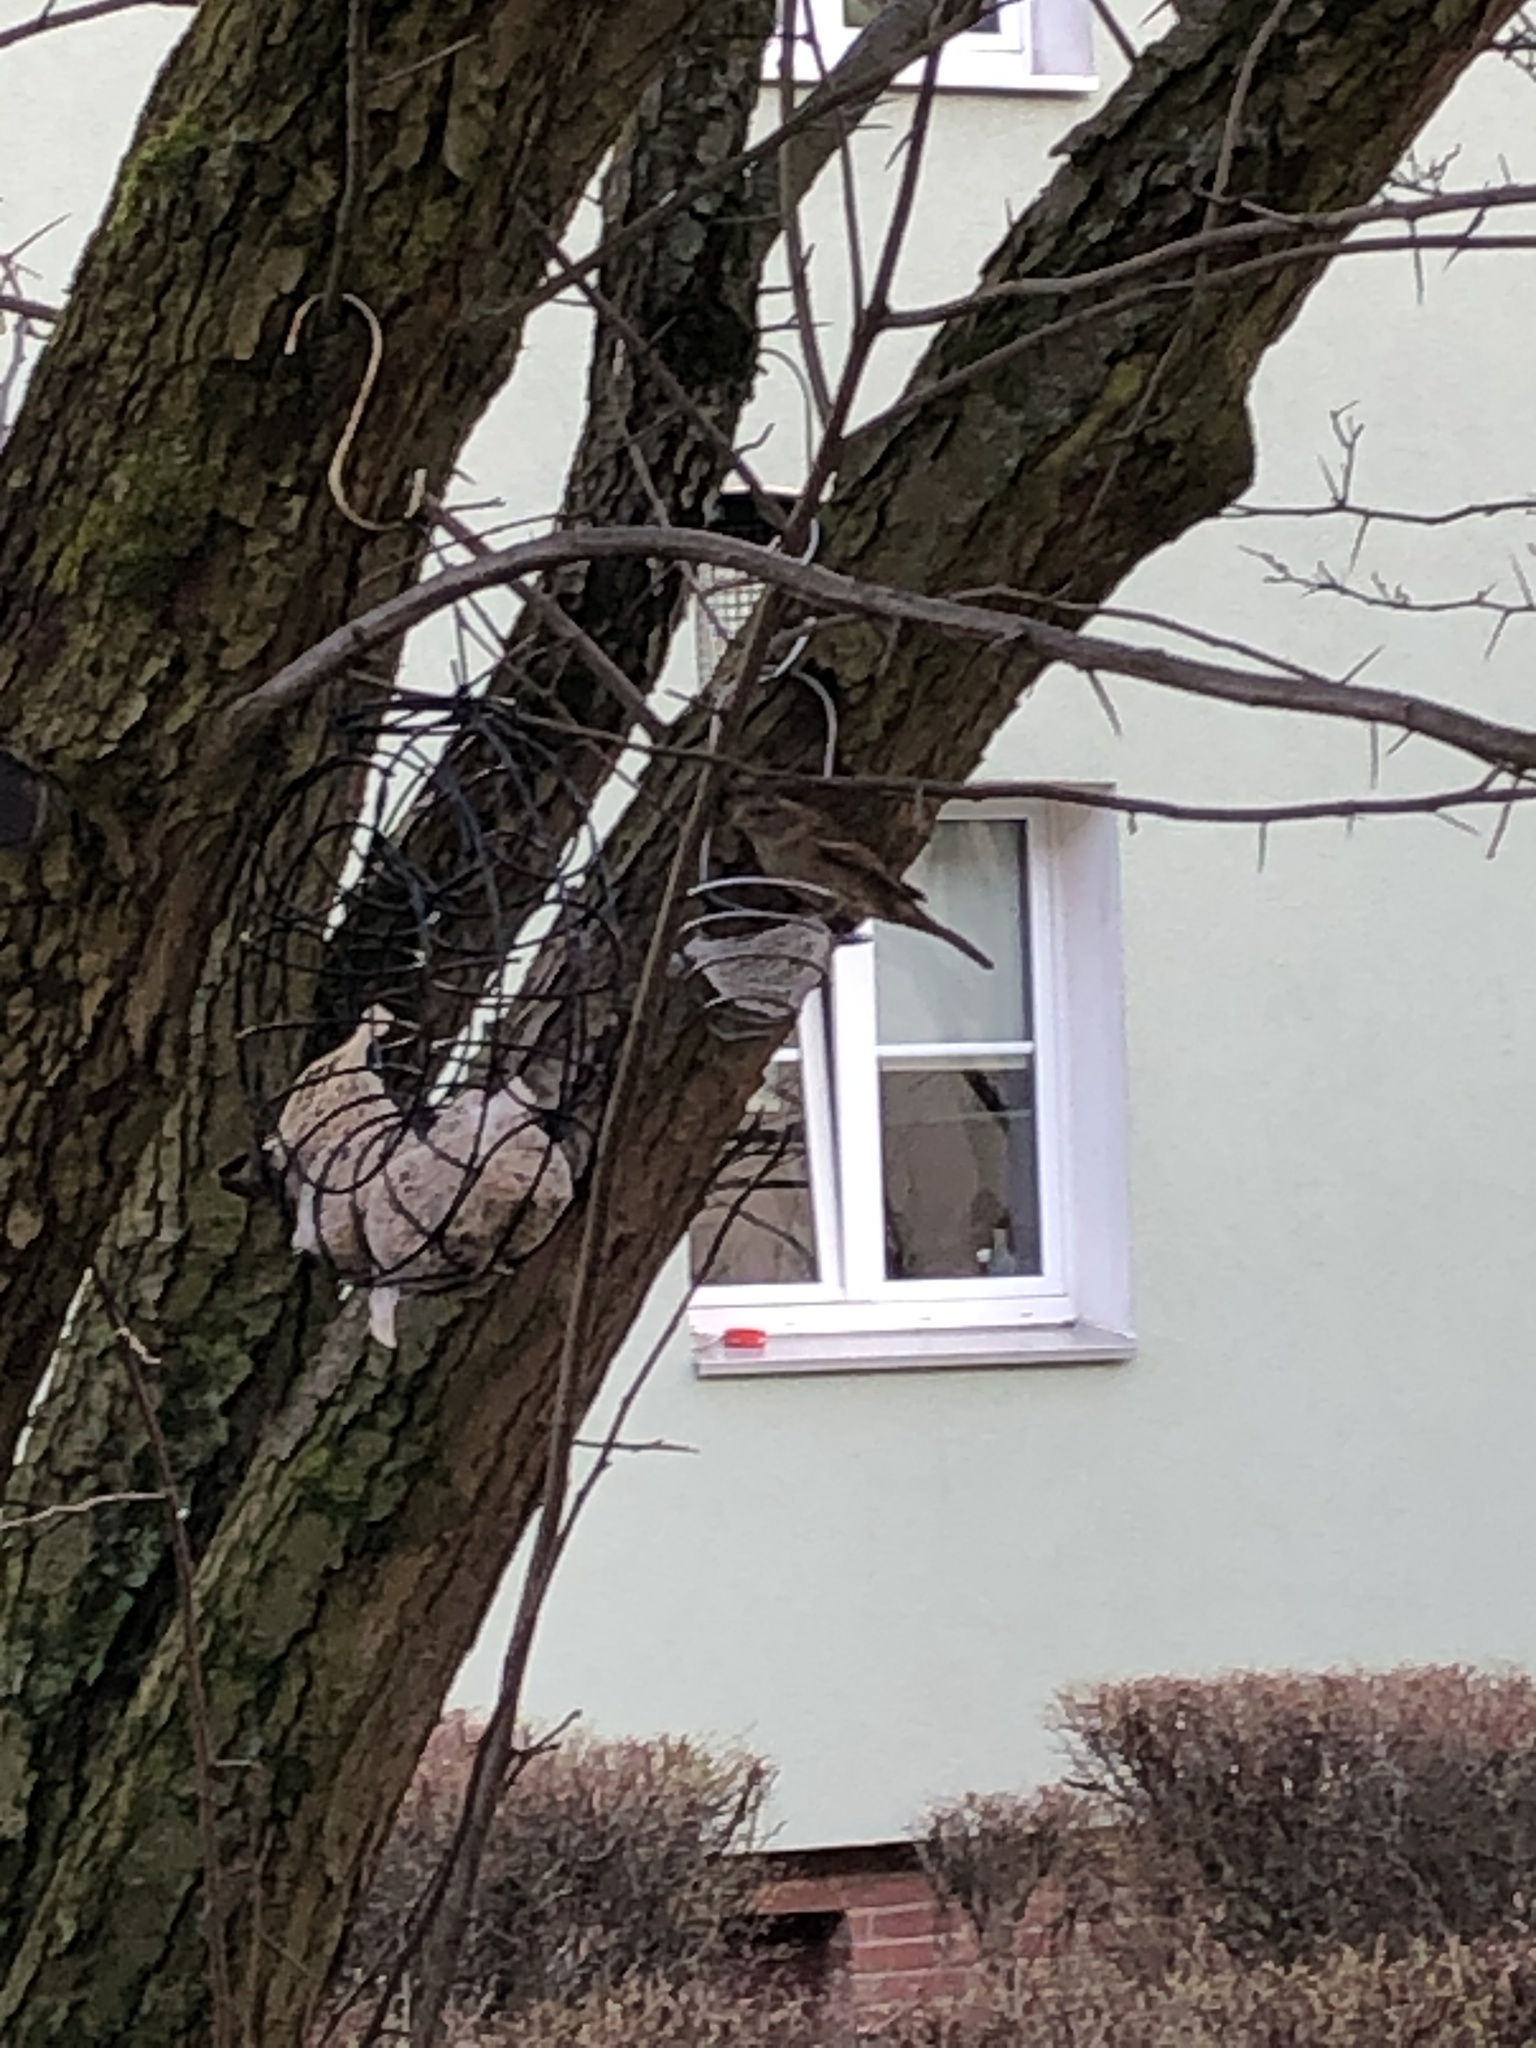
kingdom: Animalia
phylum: Chordata
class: Aves
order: Passeriformes
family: Passeridae
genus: Passer
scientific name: Passer domesticus
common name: House sparrow
